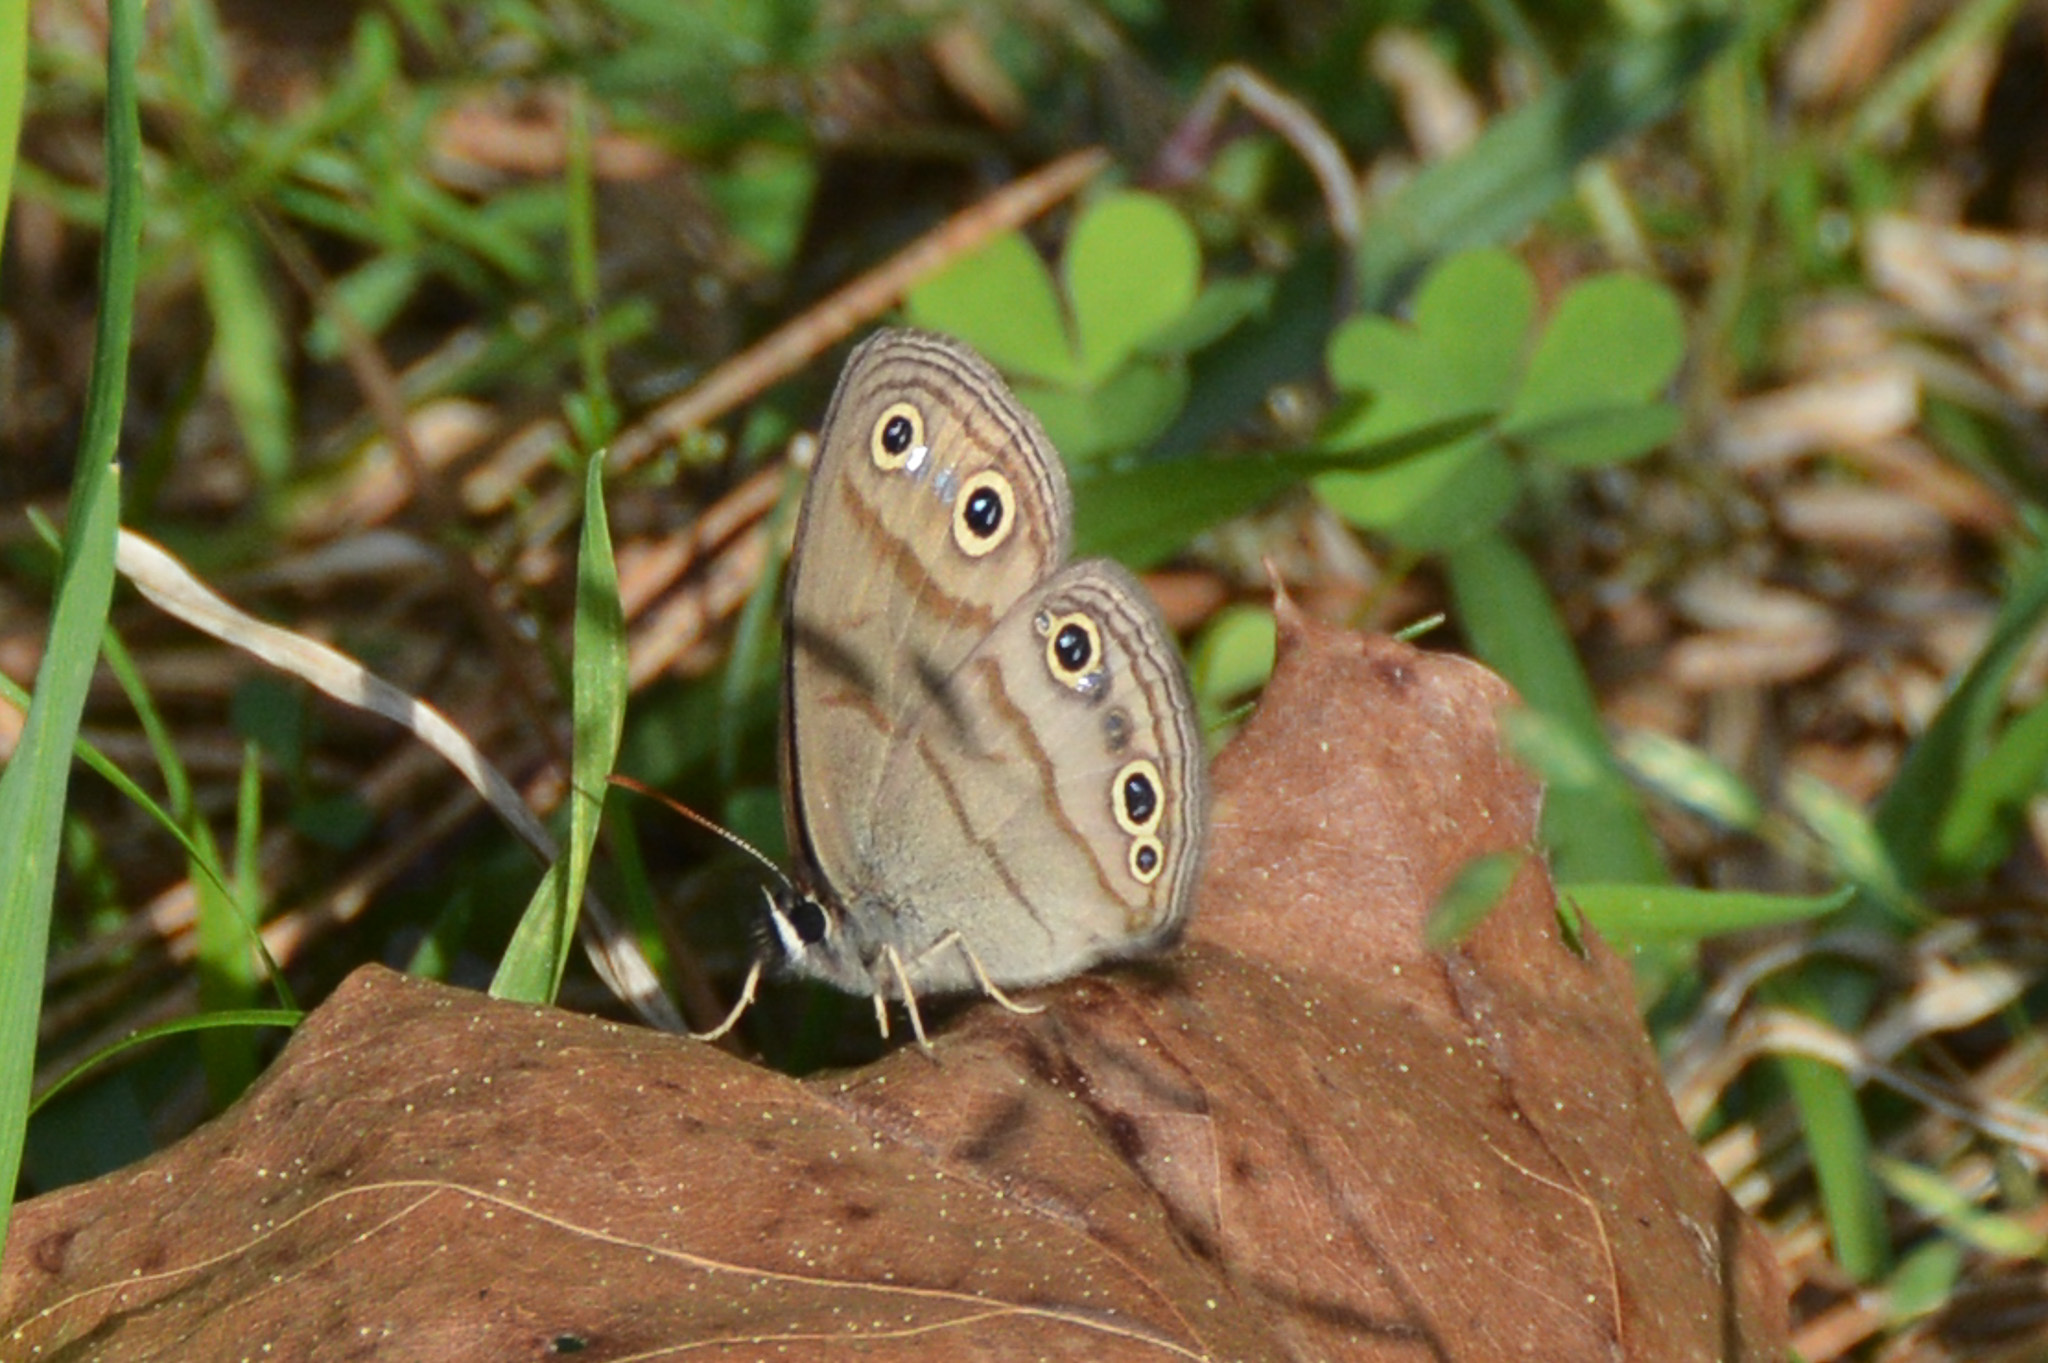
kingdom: Animalia
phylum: Arthropoda
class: Insecta
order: Lepidoptera
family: Nymphalidae
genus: Euptychia
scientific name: Euptychia cymela
